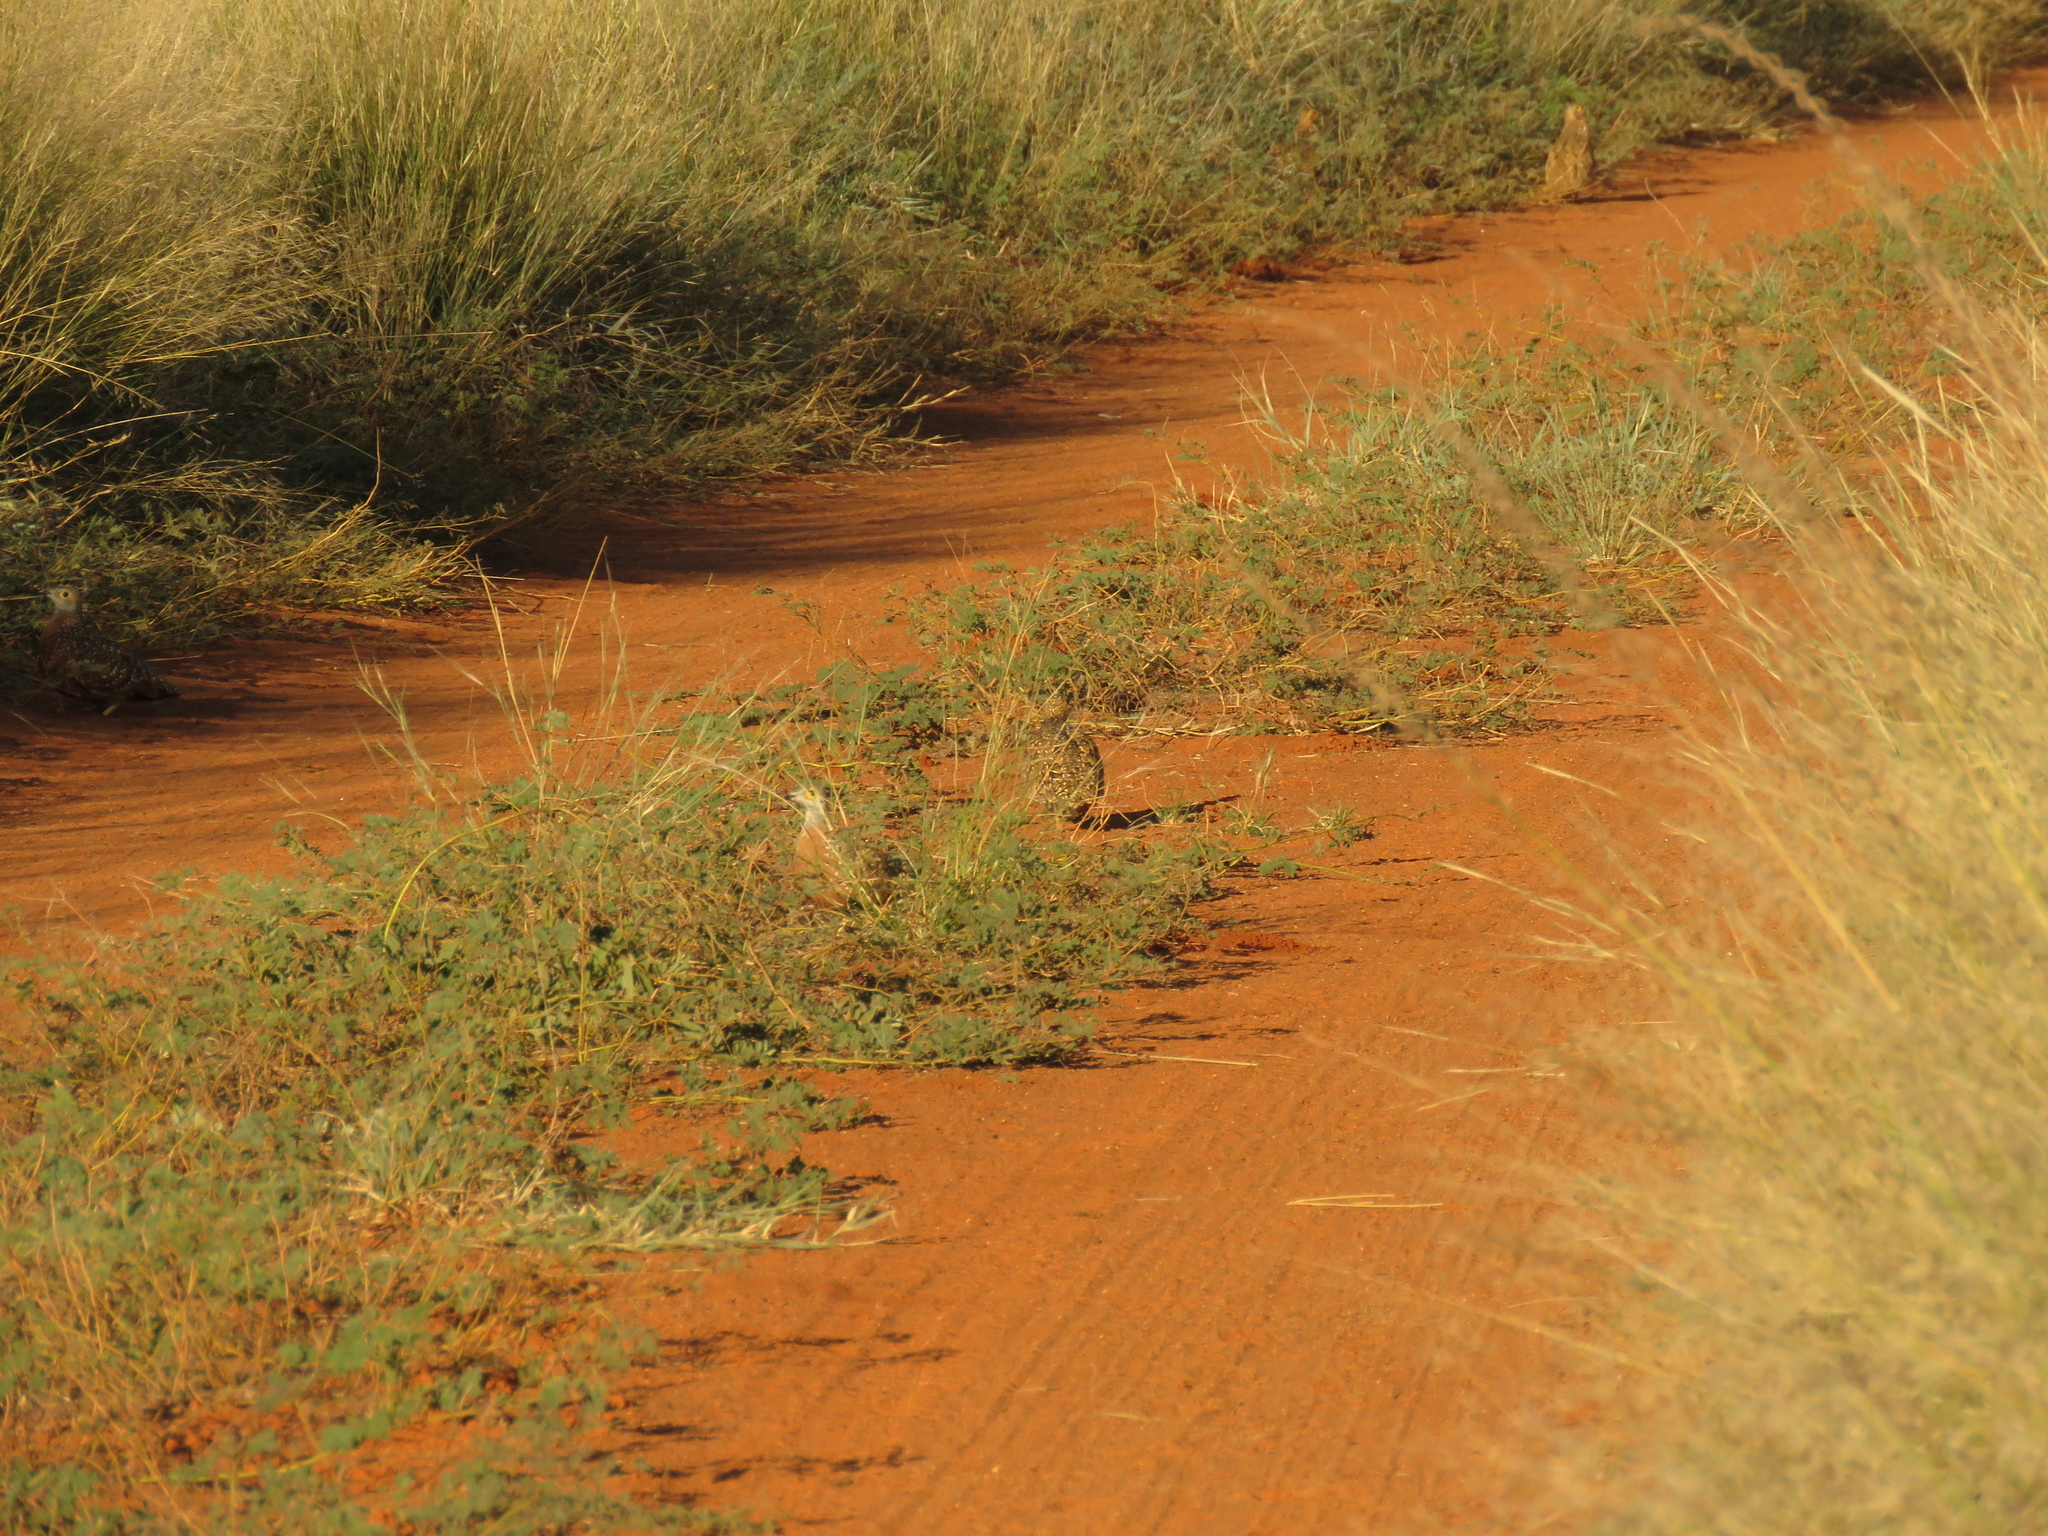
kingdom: Animalia
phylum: Chordata
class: Aves
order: Pteroclidiformes
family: Pteroclididae
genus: Pterocles
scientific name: Pterocles burchelli
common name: Burchell's sandgrouse
